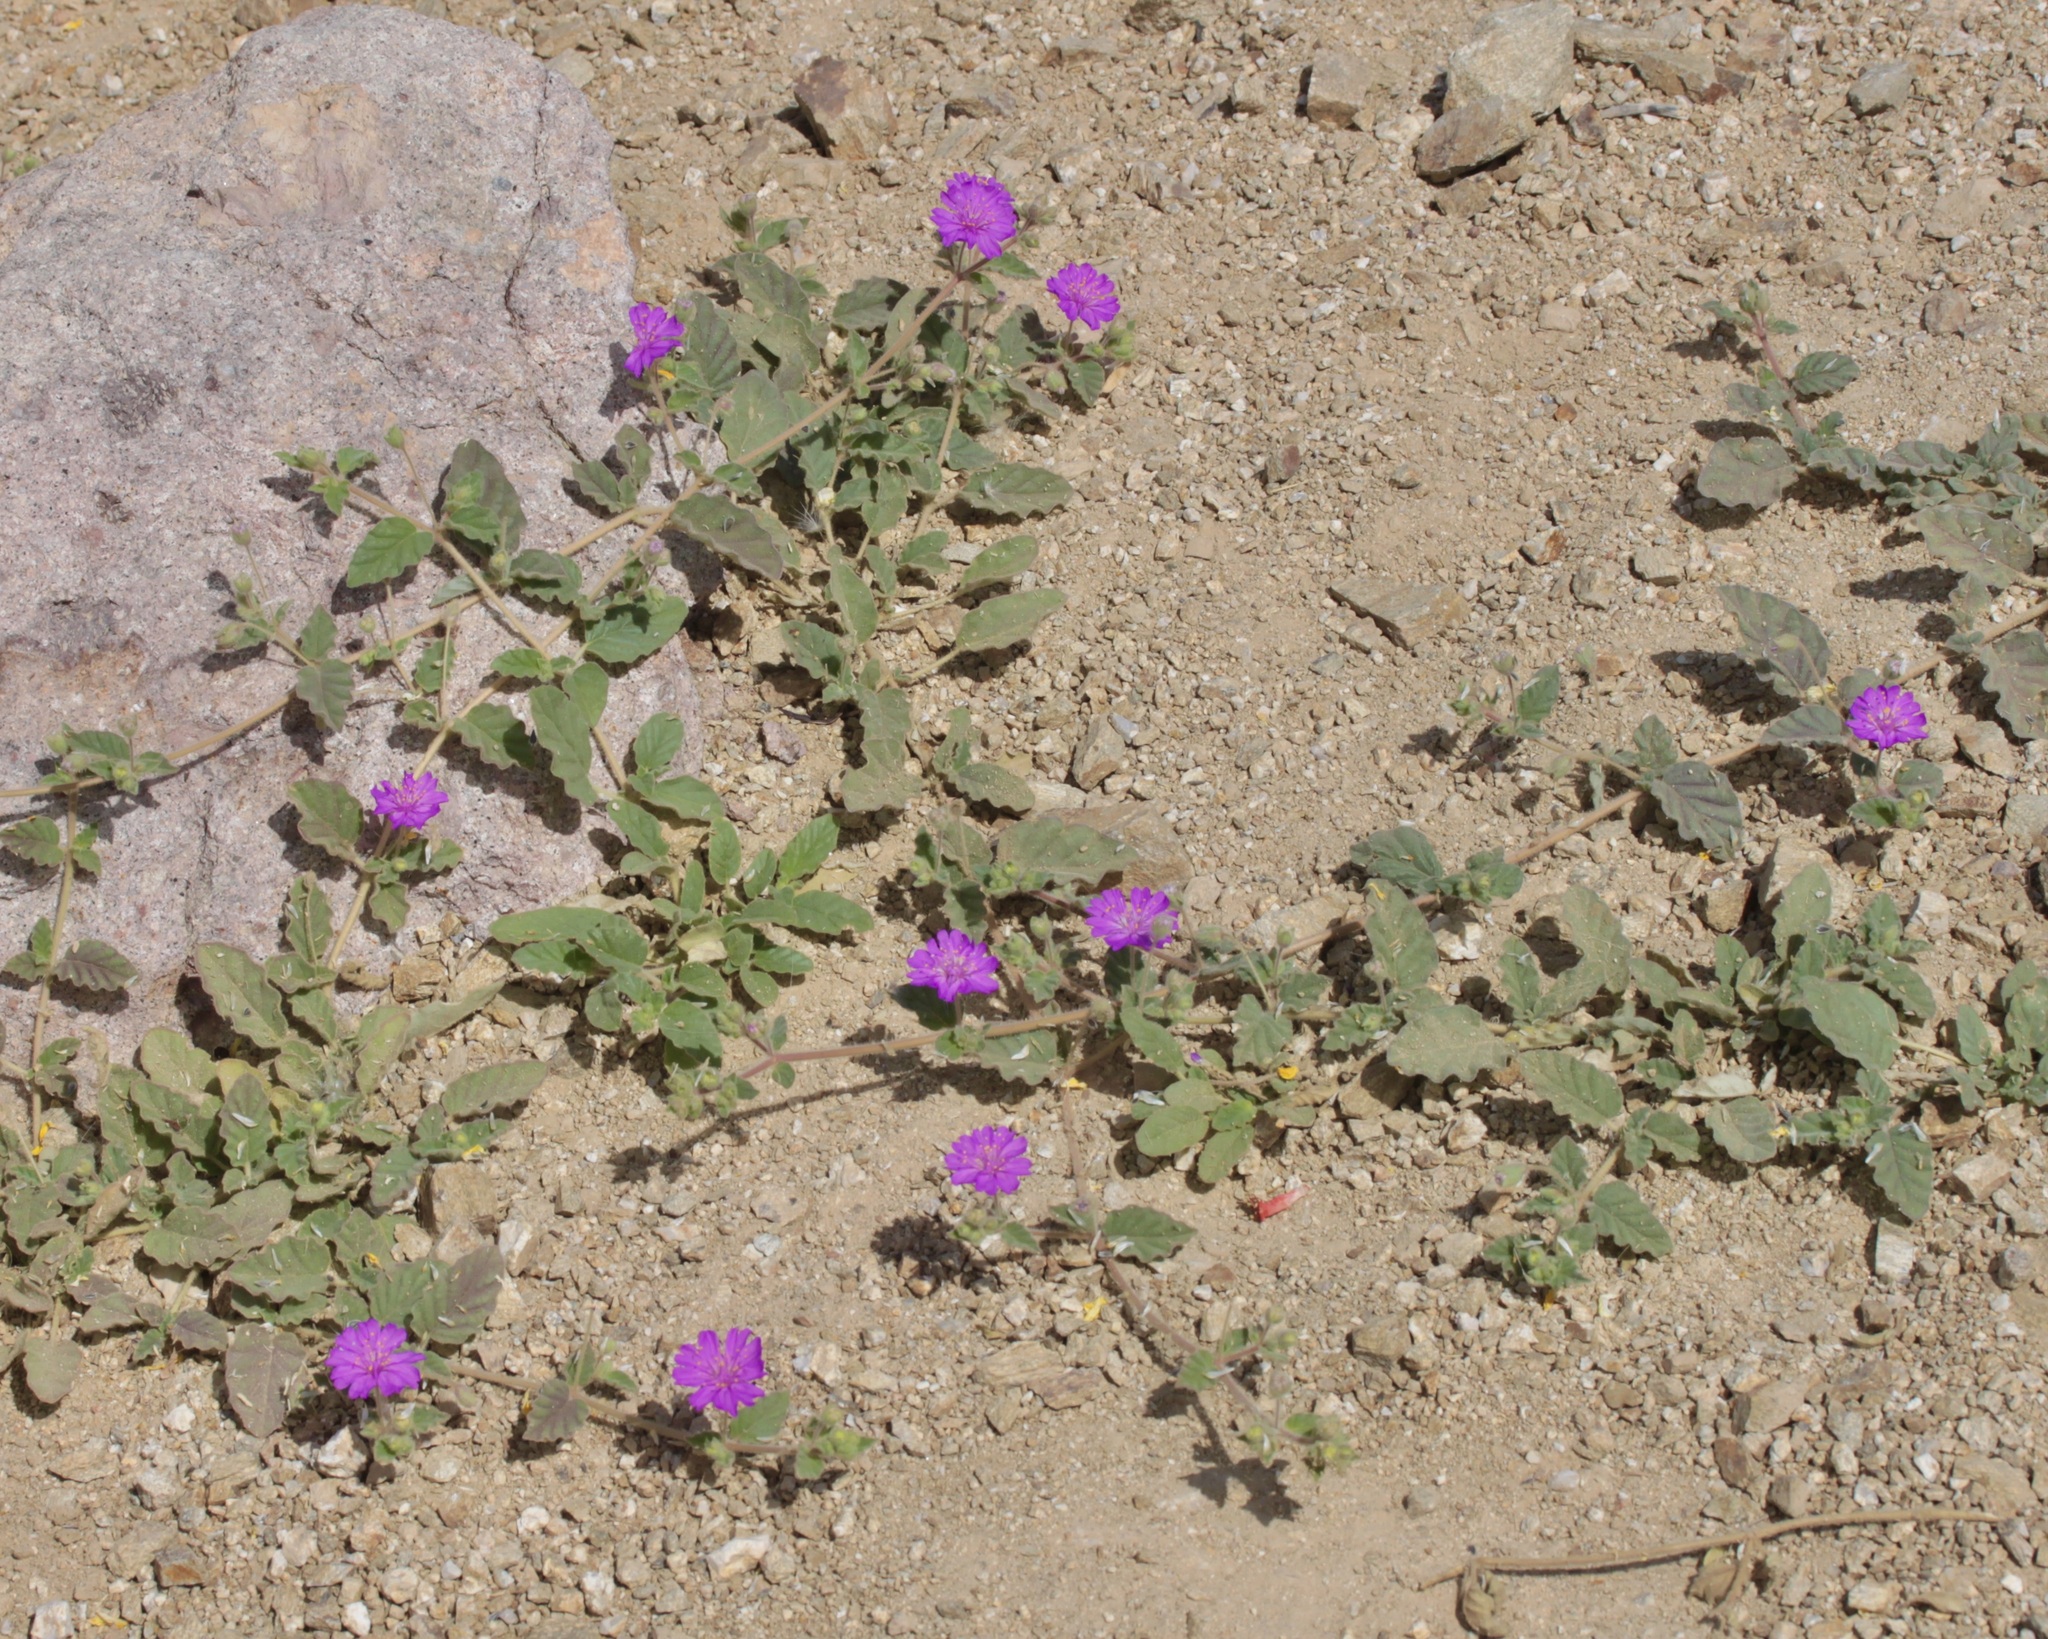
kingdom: Plantae
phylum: Tracheophyta
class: Magnoliopsida
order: Caryophyllales
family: Nyctaginaceae
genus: Allionia
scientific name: Allionia incarnata
